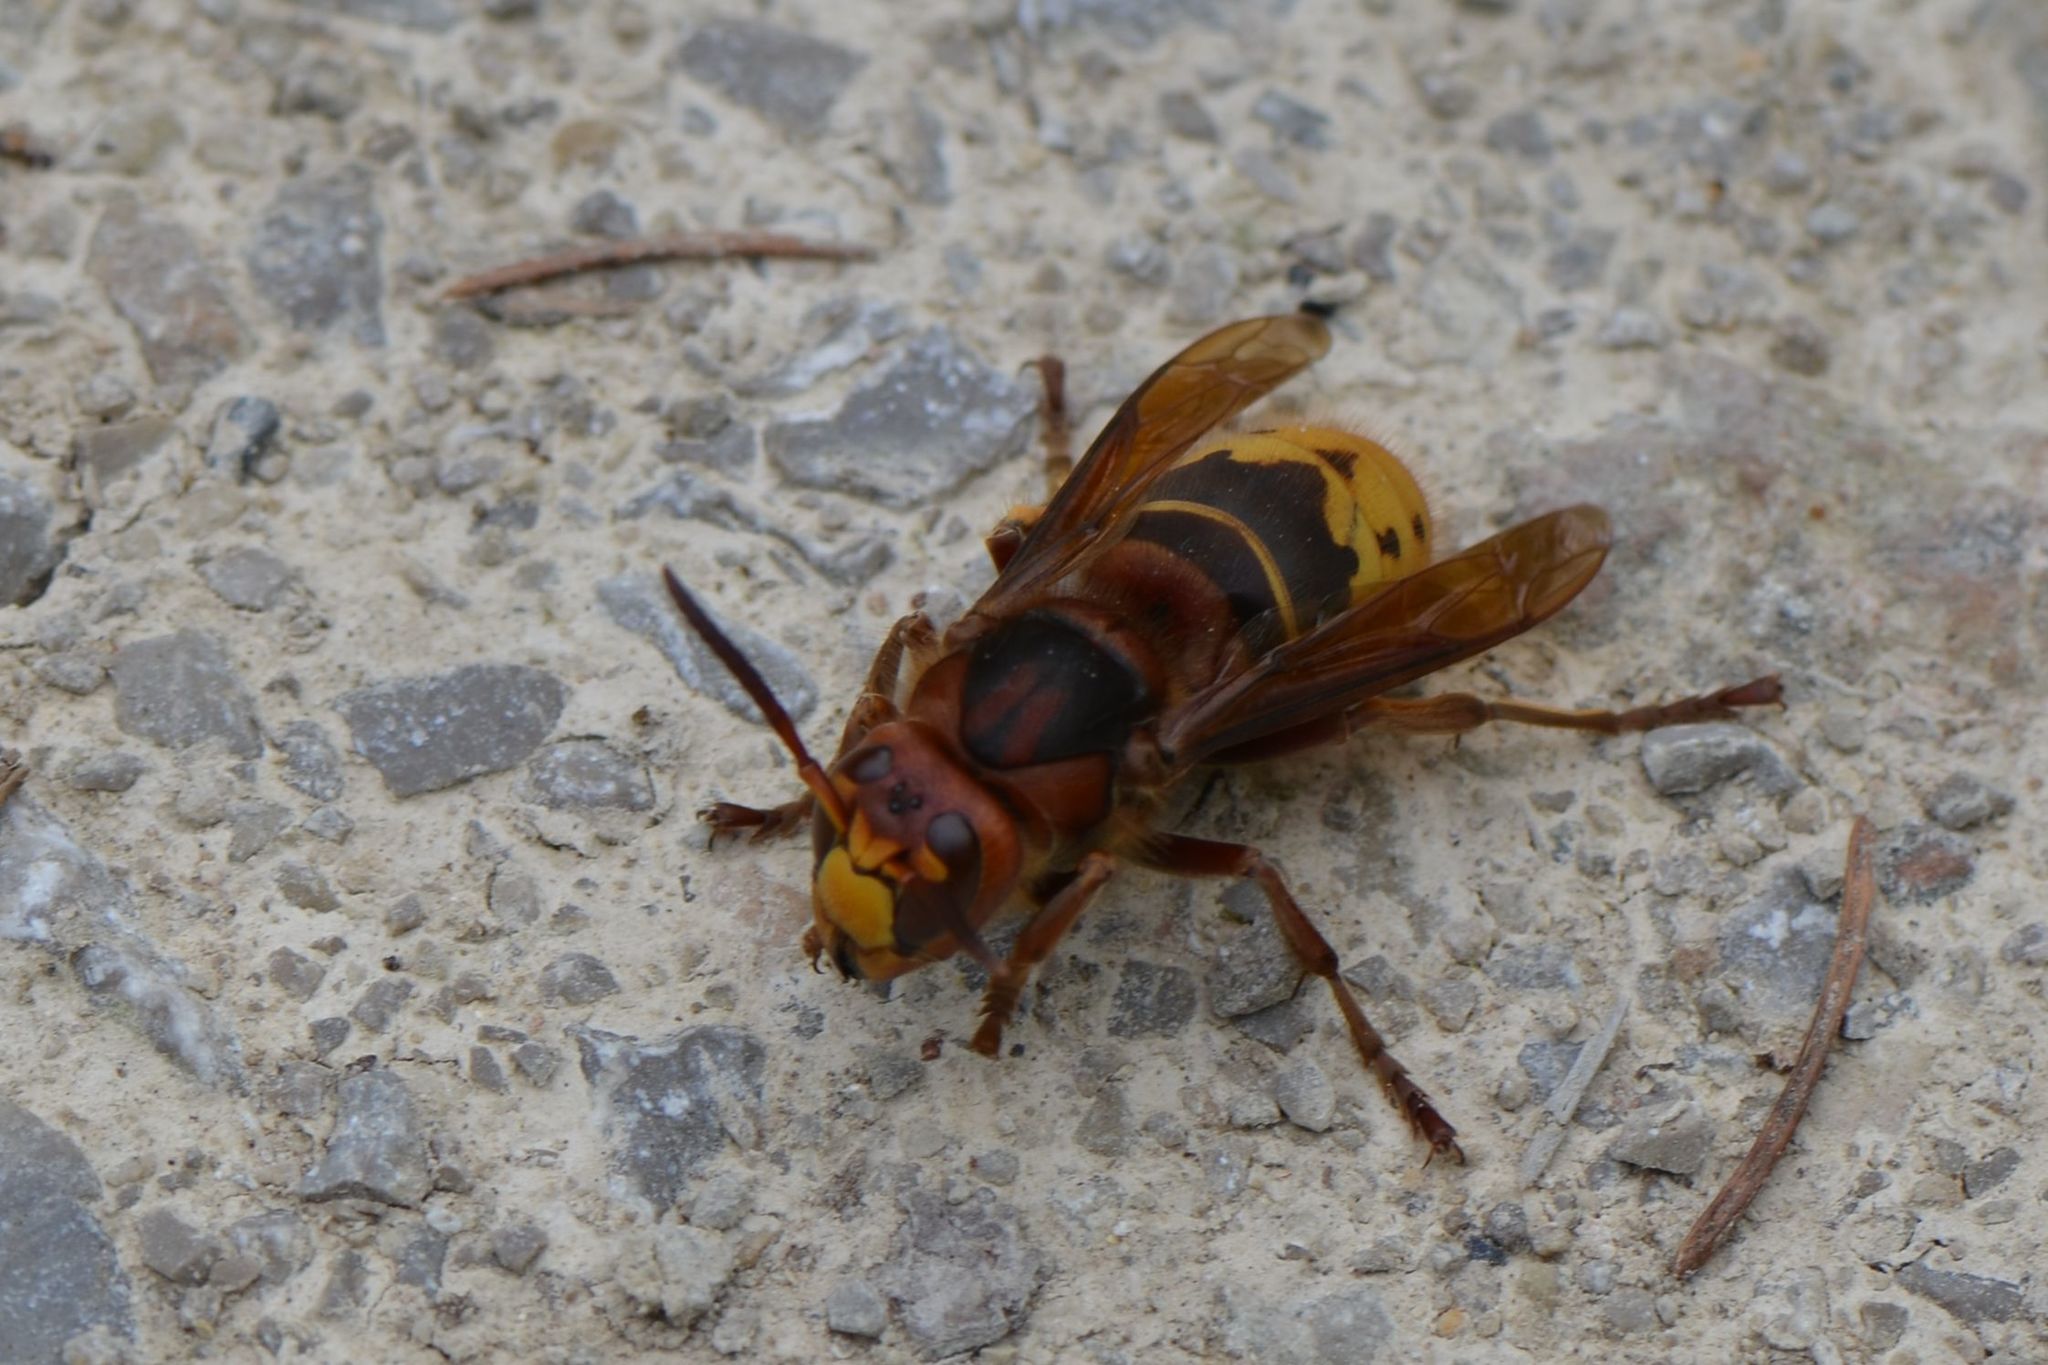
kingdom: Animalia
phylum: Arthropoda
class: Insecta
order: Hymenoptera
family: Vespidae
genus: Vespa
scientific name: Vespa crabro
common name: Hornet
